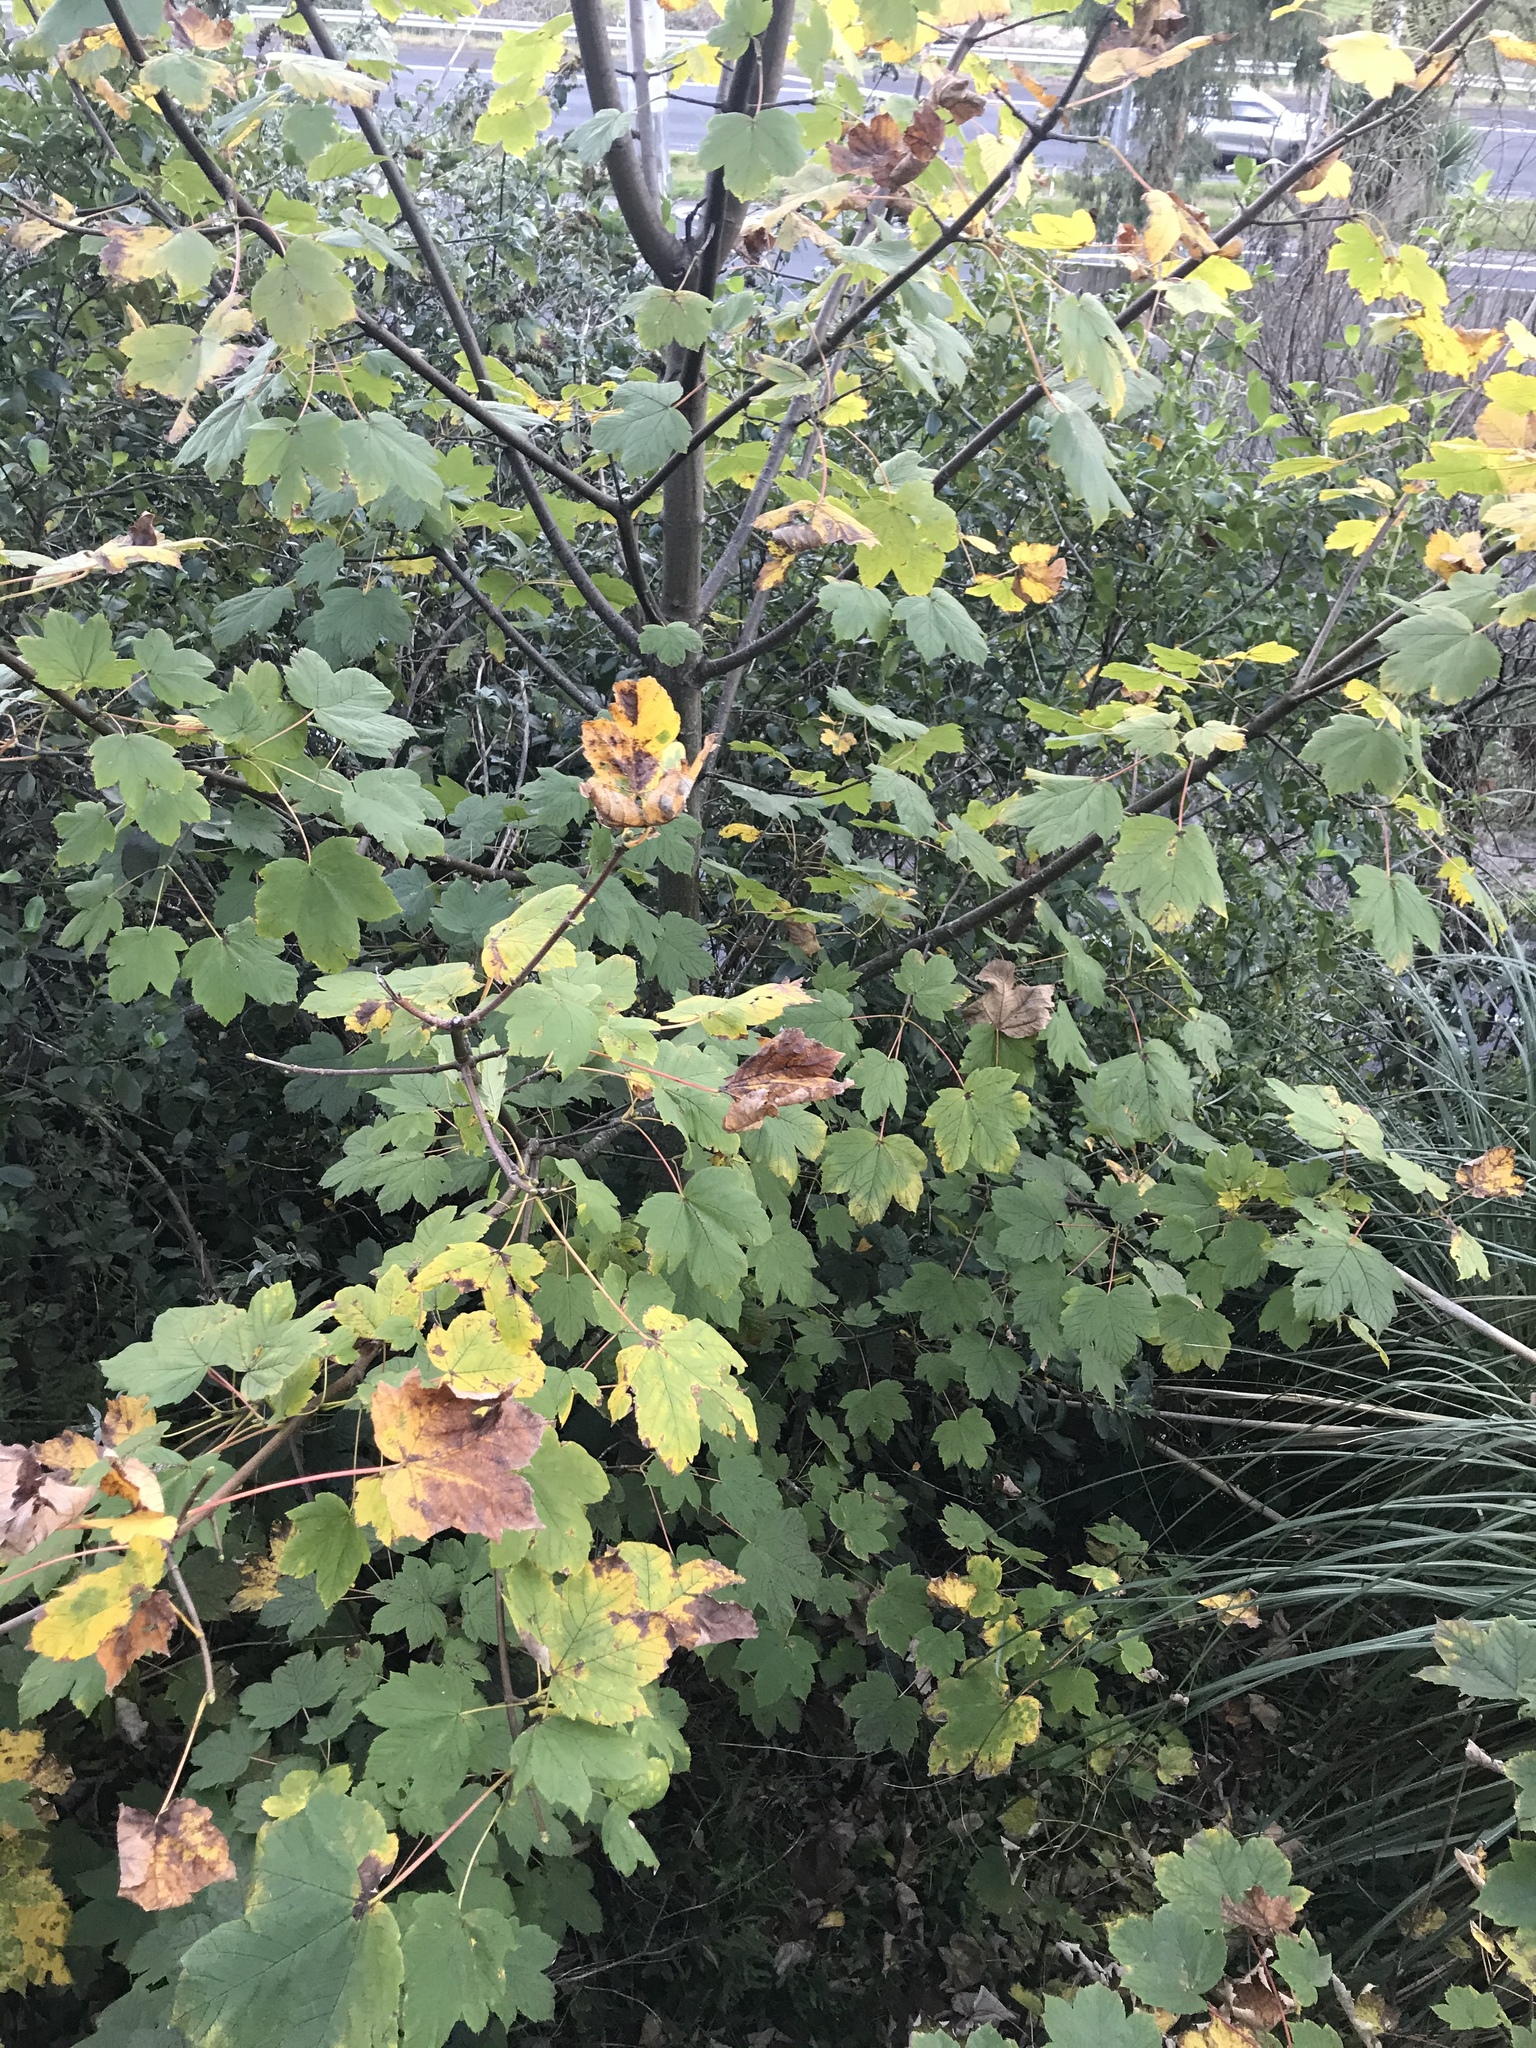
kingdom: Plantae
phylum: Tracheophyta
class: Magnoliopsida
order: Sapindales
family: Sapindaceae
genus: Acer
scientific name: Acer pseudoplatanus
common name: Sycamore
